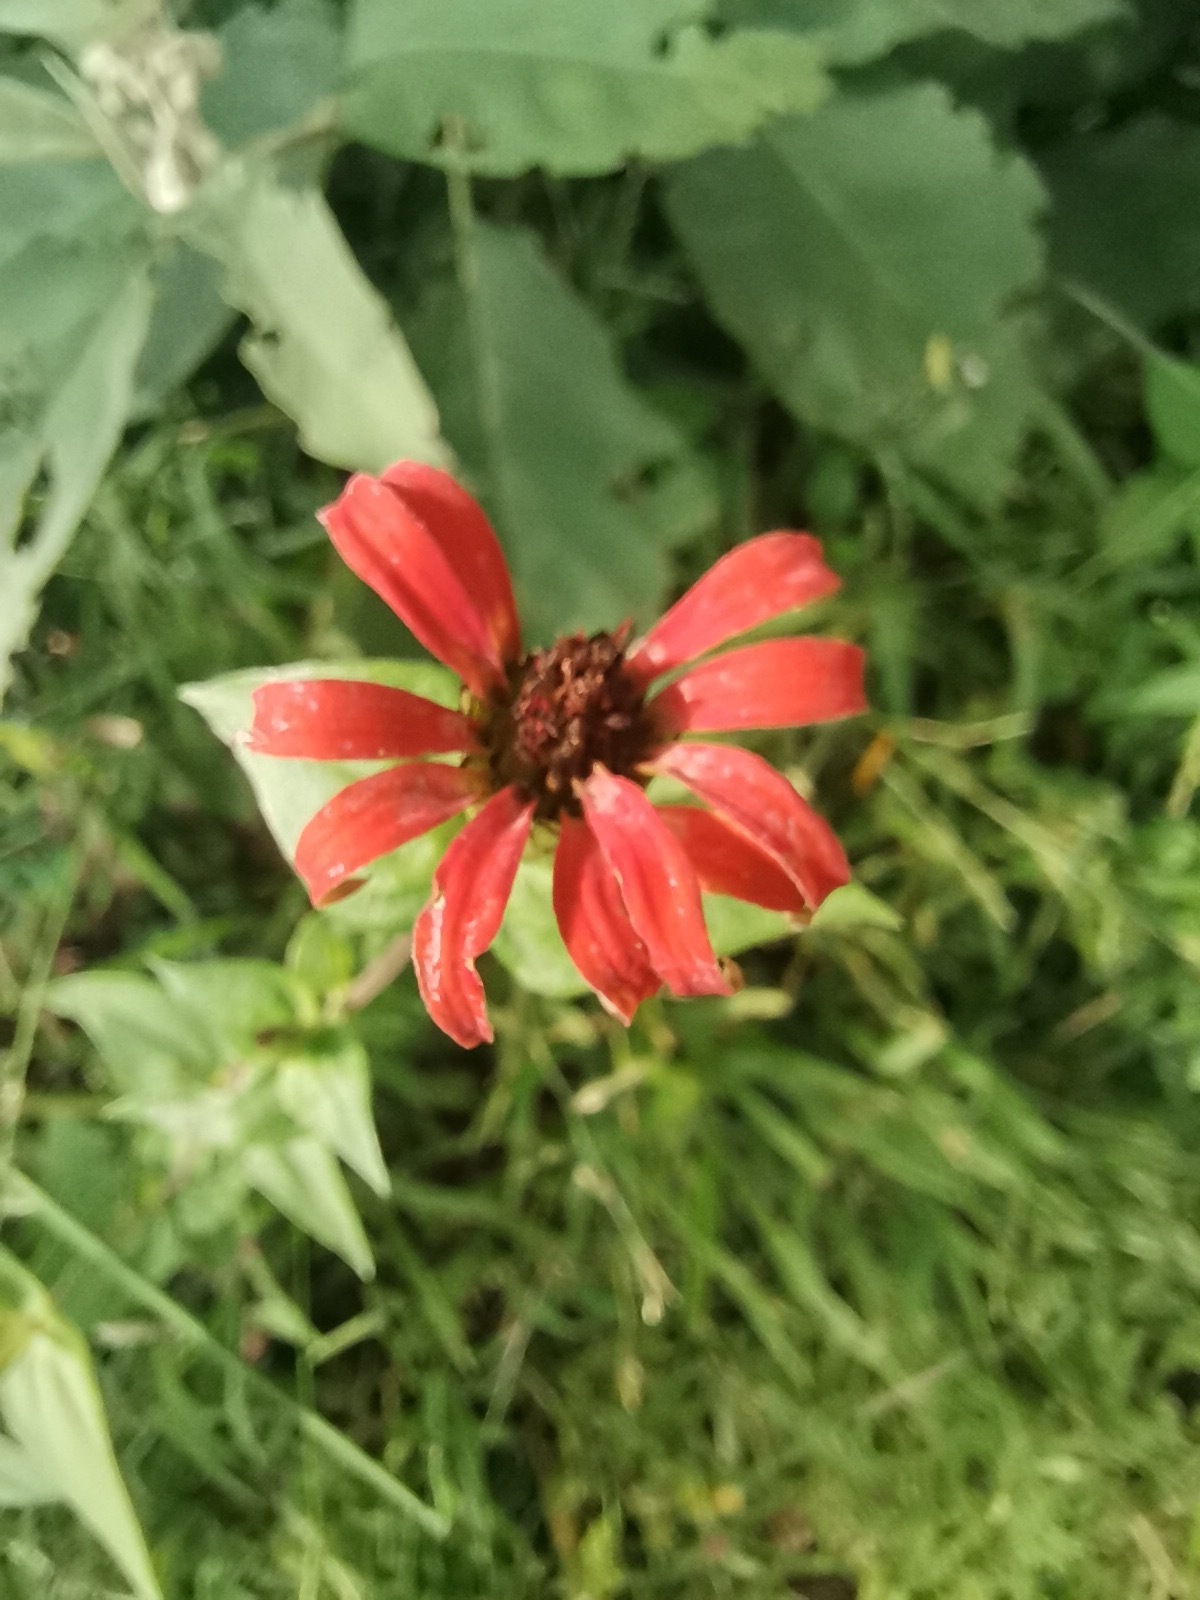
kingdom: Plantae
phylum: Tracheophyta
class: Magnoliopsida
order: Asterales
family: Asteraceae
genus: Zinnia
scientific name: Zinnia peruviana
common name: Peruvian zinnia
